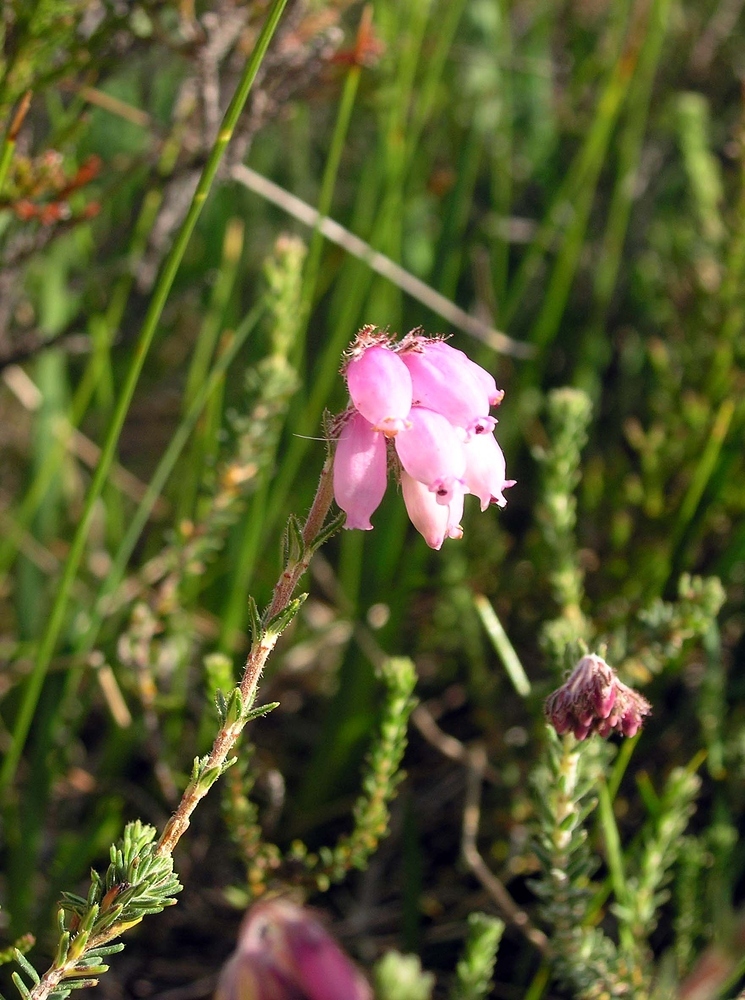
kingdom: Plantae
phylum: Tracheophyta
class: Magnoliopsida
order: Ericales
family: Ericaceae
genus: Erica
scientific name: Erica tetralix
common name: Cross-leaved heath
